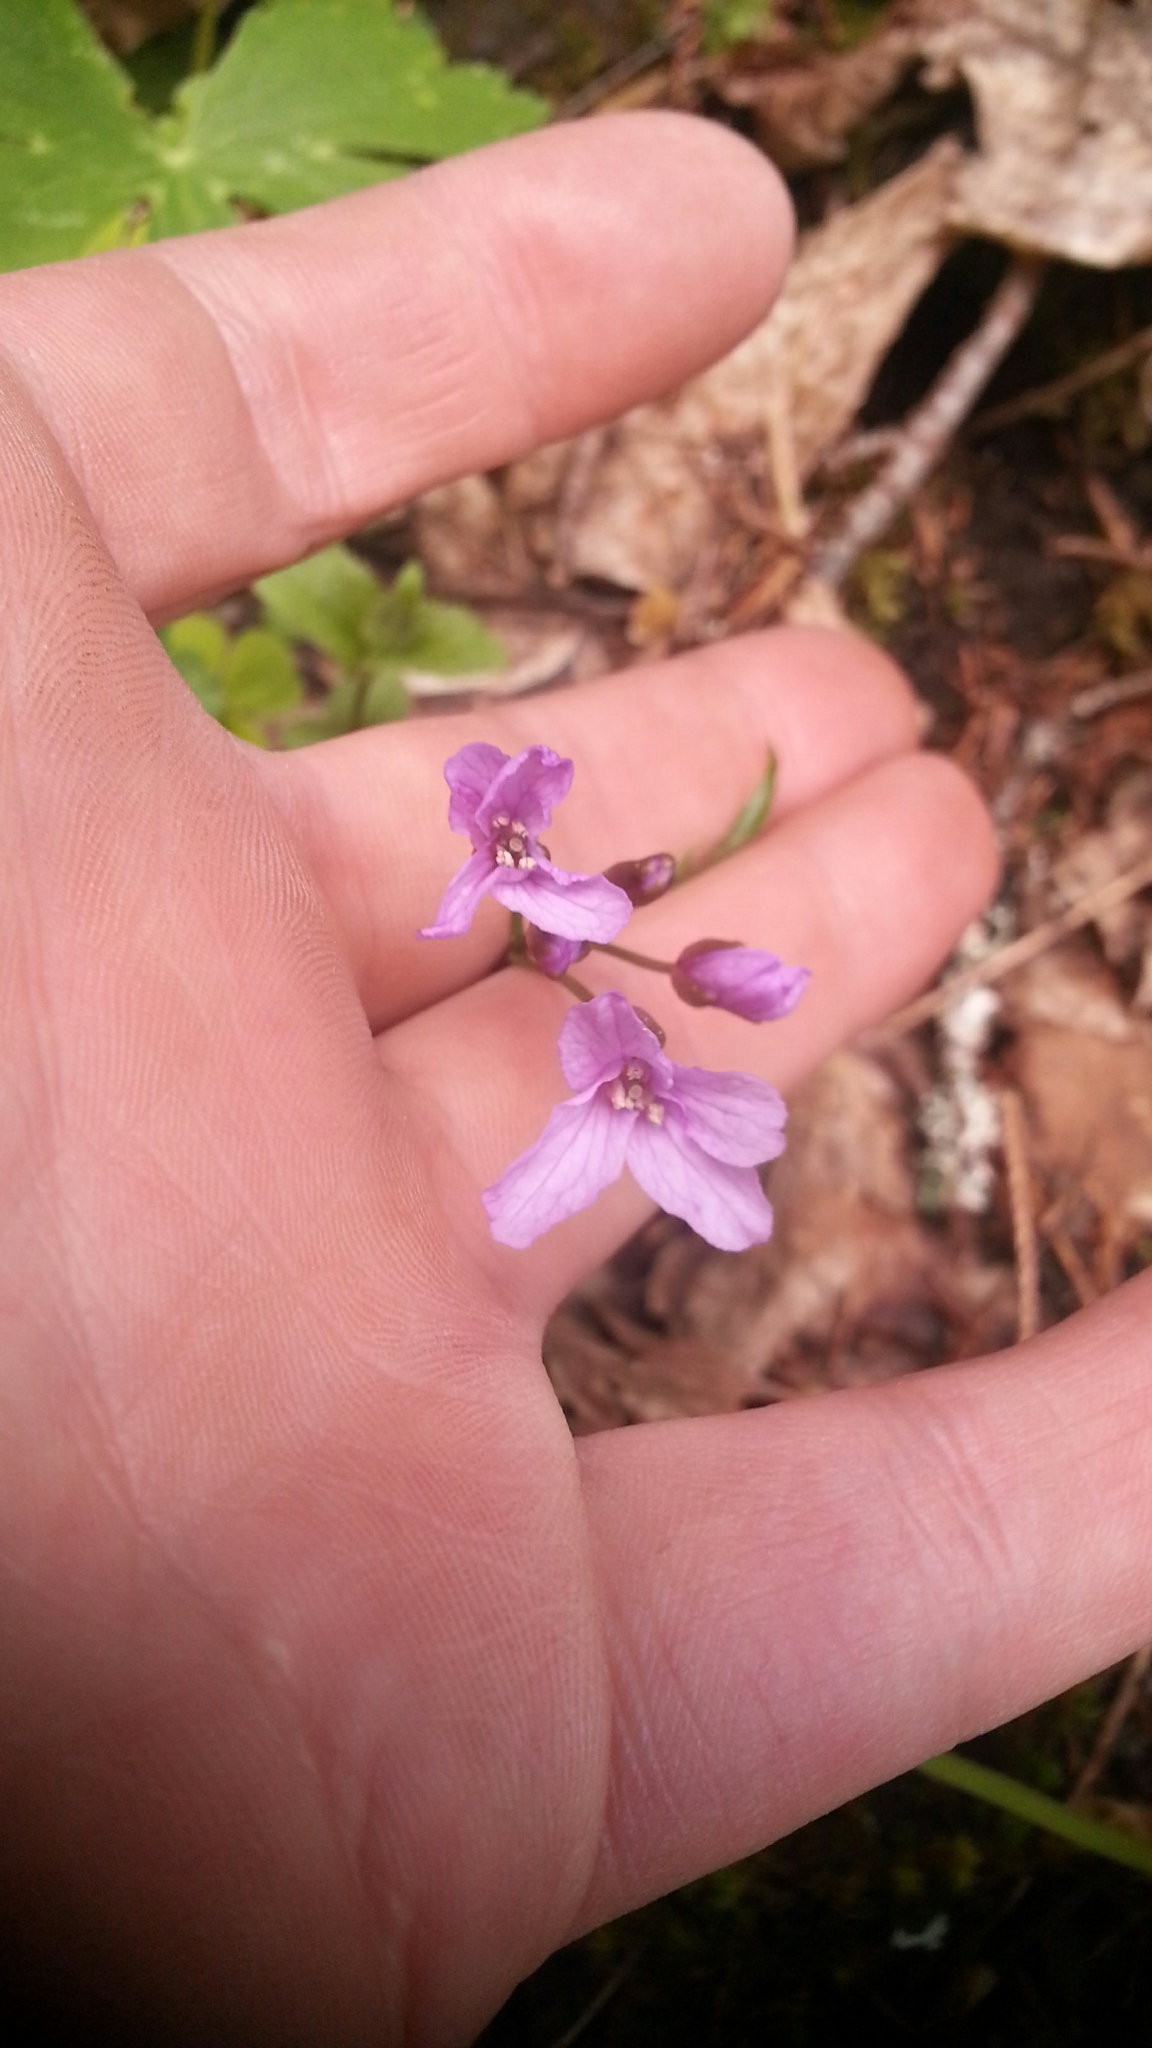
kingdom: Plantae
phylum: Tracheophyta
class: Magnoliopsida
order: Brassicales
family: Brassicaceae
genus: Cardamine
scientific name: Cardamine pentaphyllos
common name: Five-leaflet bitter-cress
